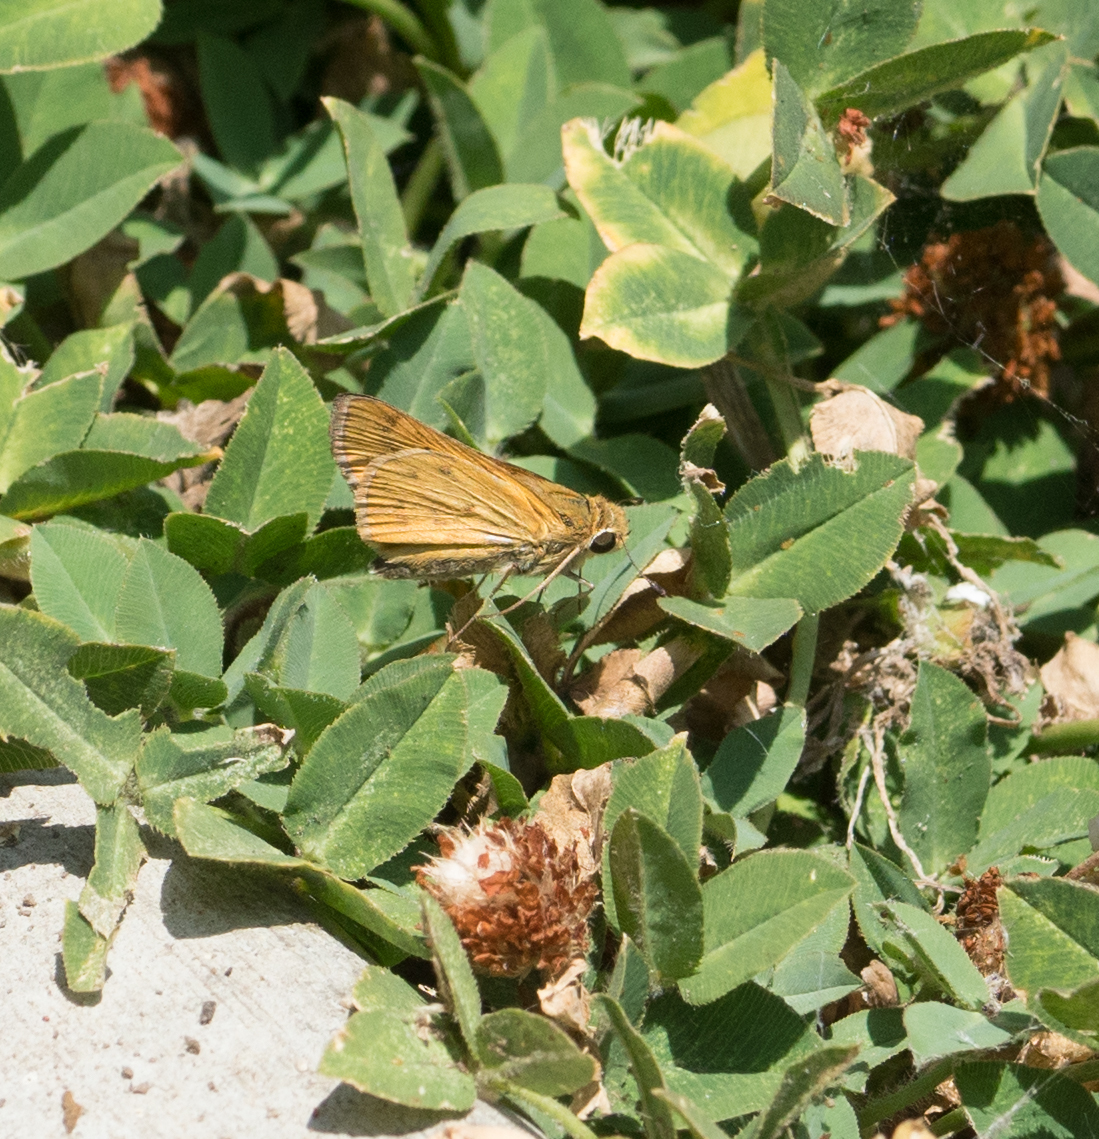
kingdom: Animalia
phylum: Arthropoda
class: Insecta
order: Lepidoptera
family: Hesperiidae
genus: Hylephila
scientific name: Hylephila phyleus
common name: Fiery skipper
